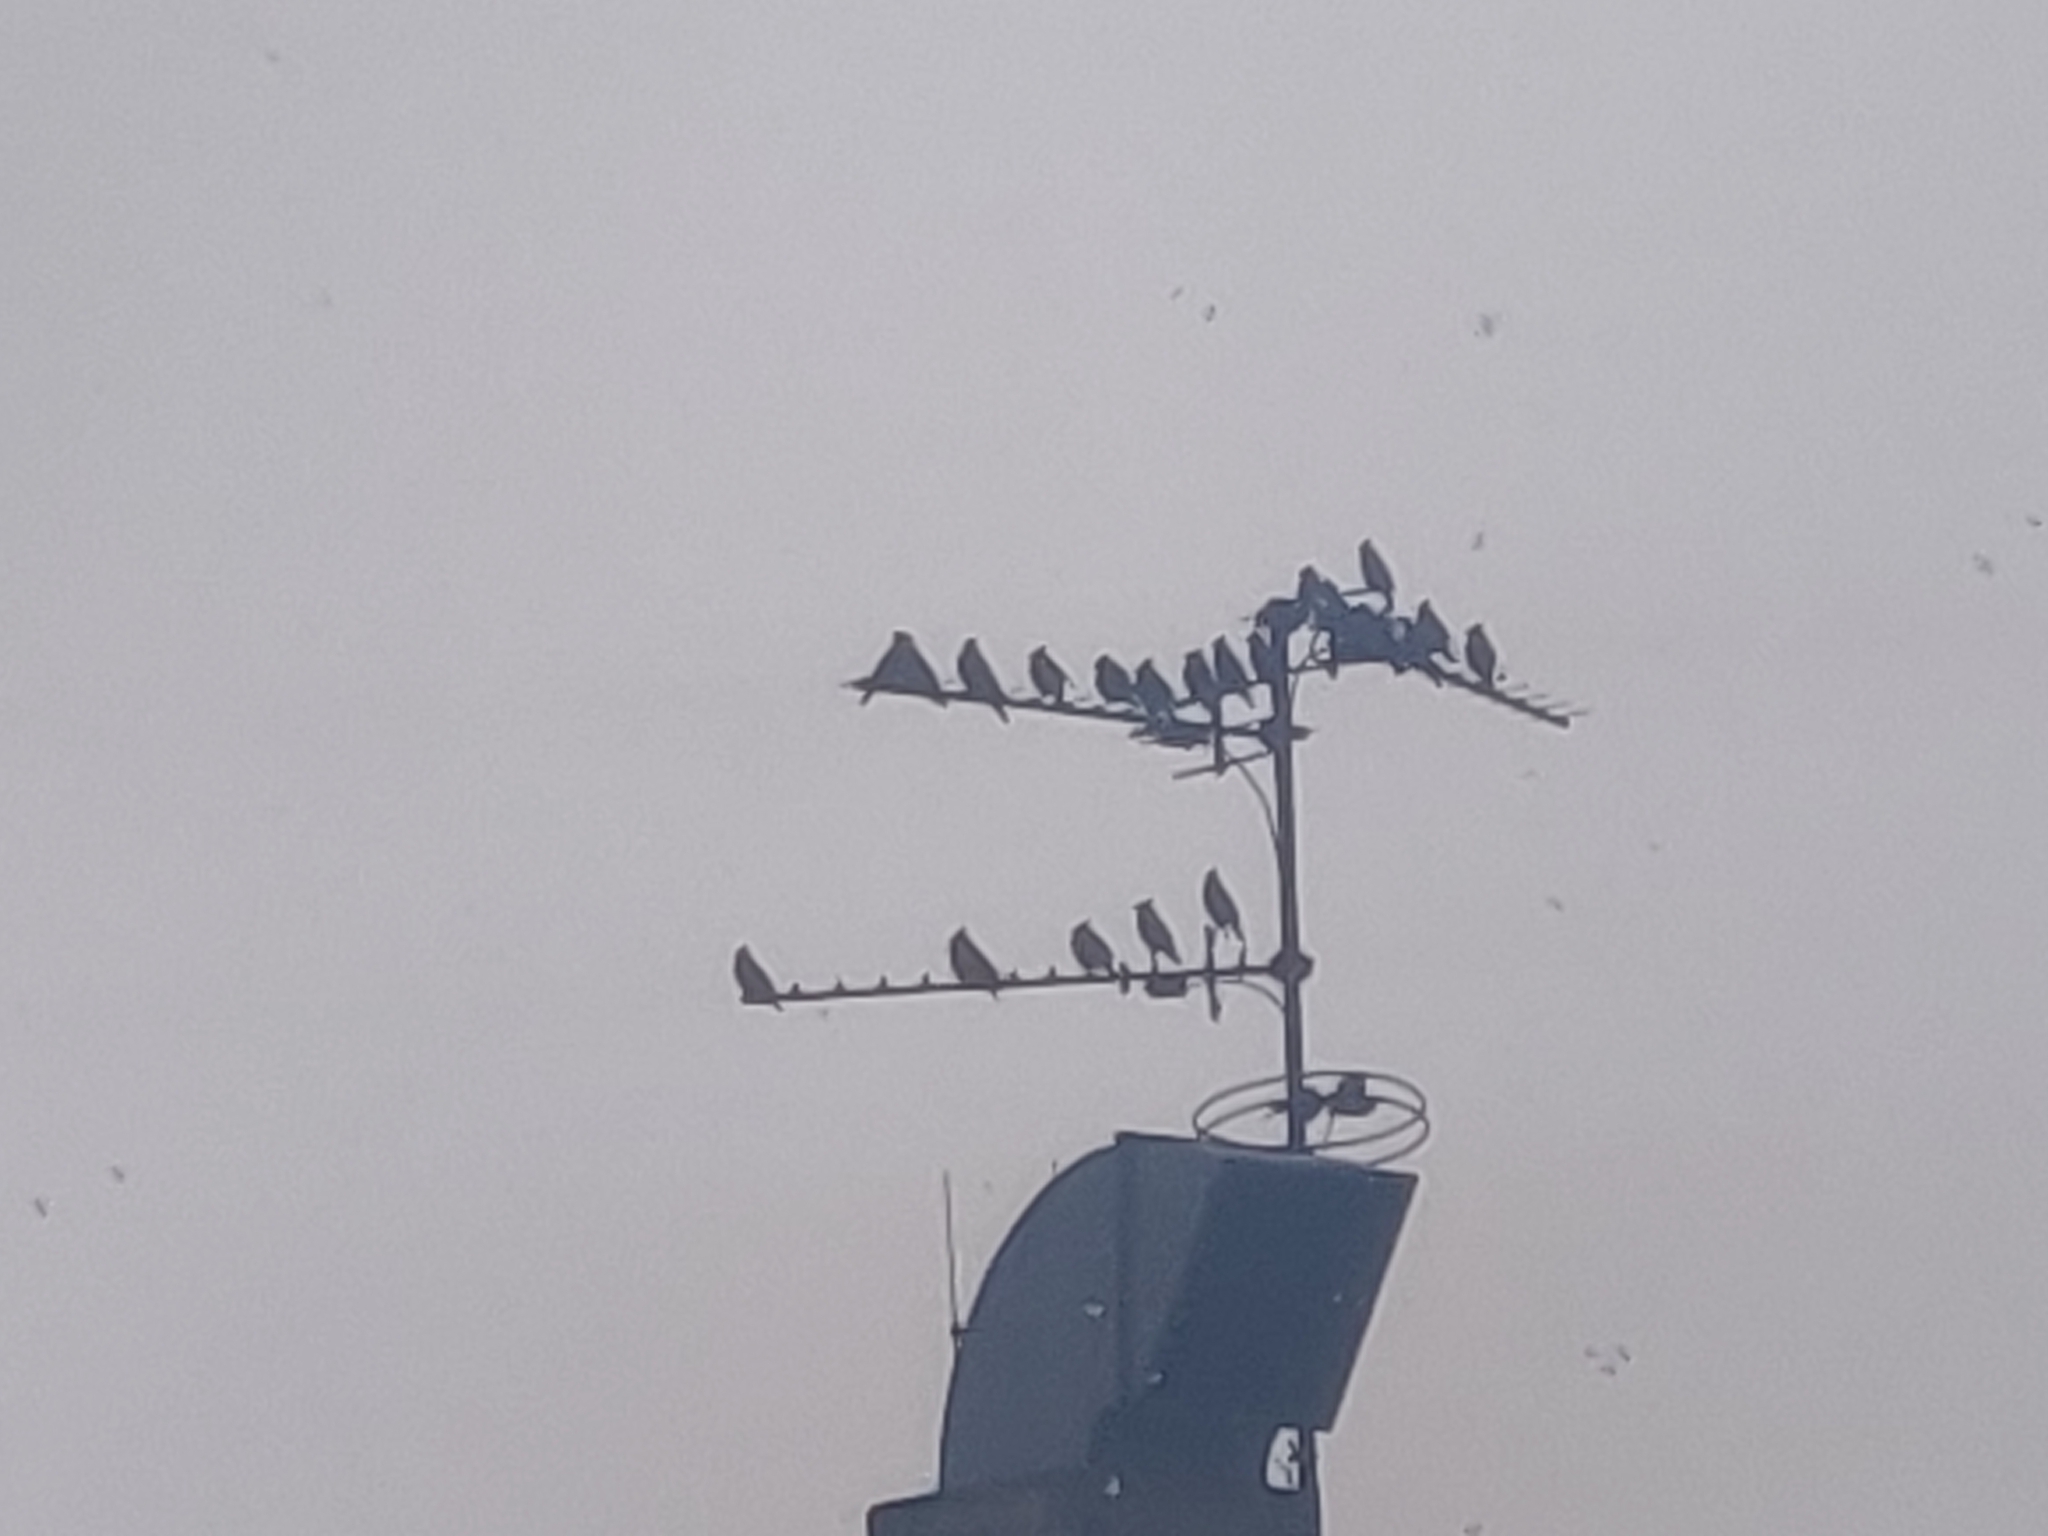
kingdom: Animalia
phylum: Chordata
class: Aves
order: Passeriformes
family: Bombycillidae
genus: Bombycilla
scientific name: Bombycilla garrulus
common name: Bohemian waxwing
